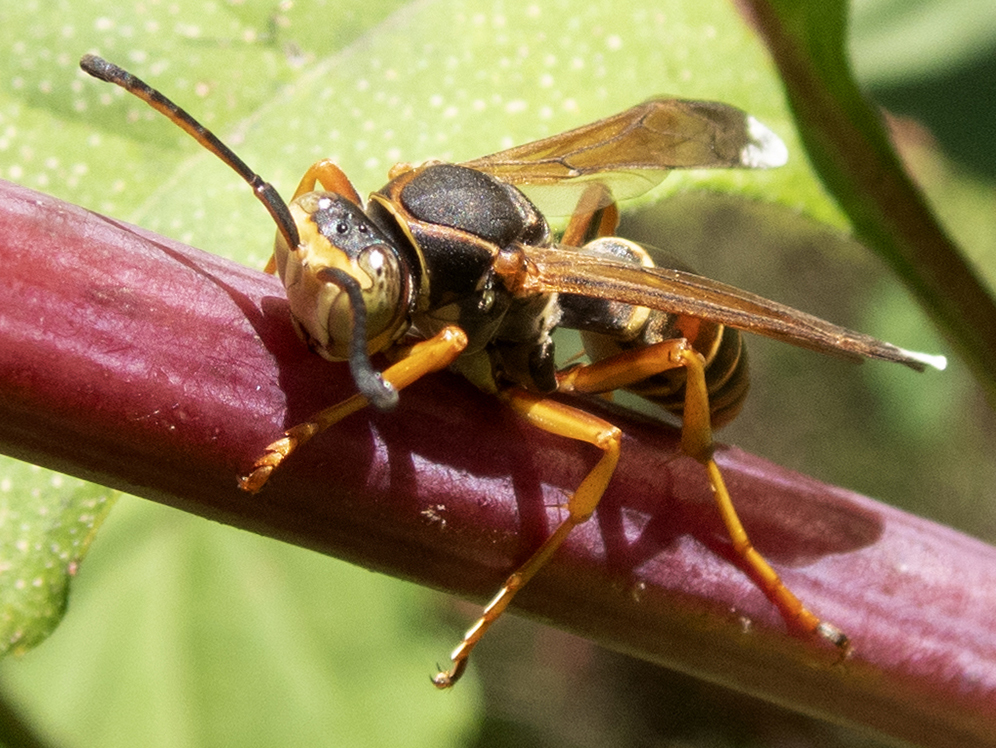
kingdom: Animalia
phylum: Arthropoda
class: Insecta
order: Hymenoptera
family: Eumenidae
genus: Polistes
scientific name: Polistes fuscatus
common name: Dark paper wasp
